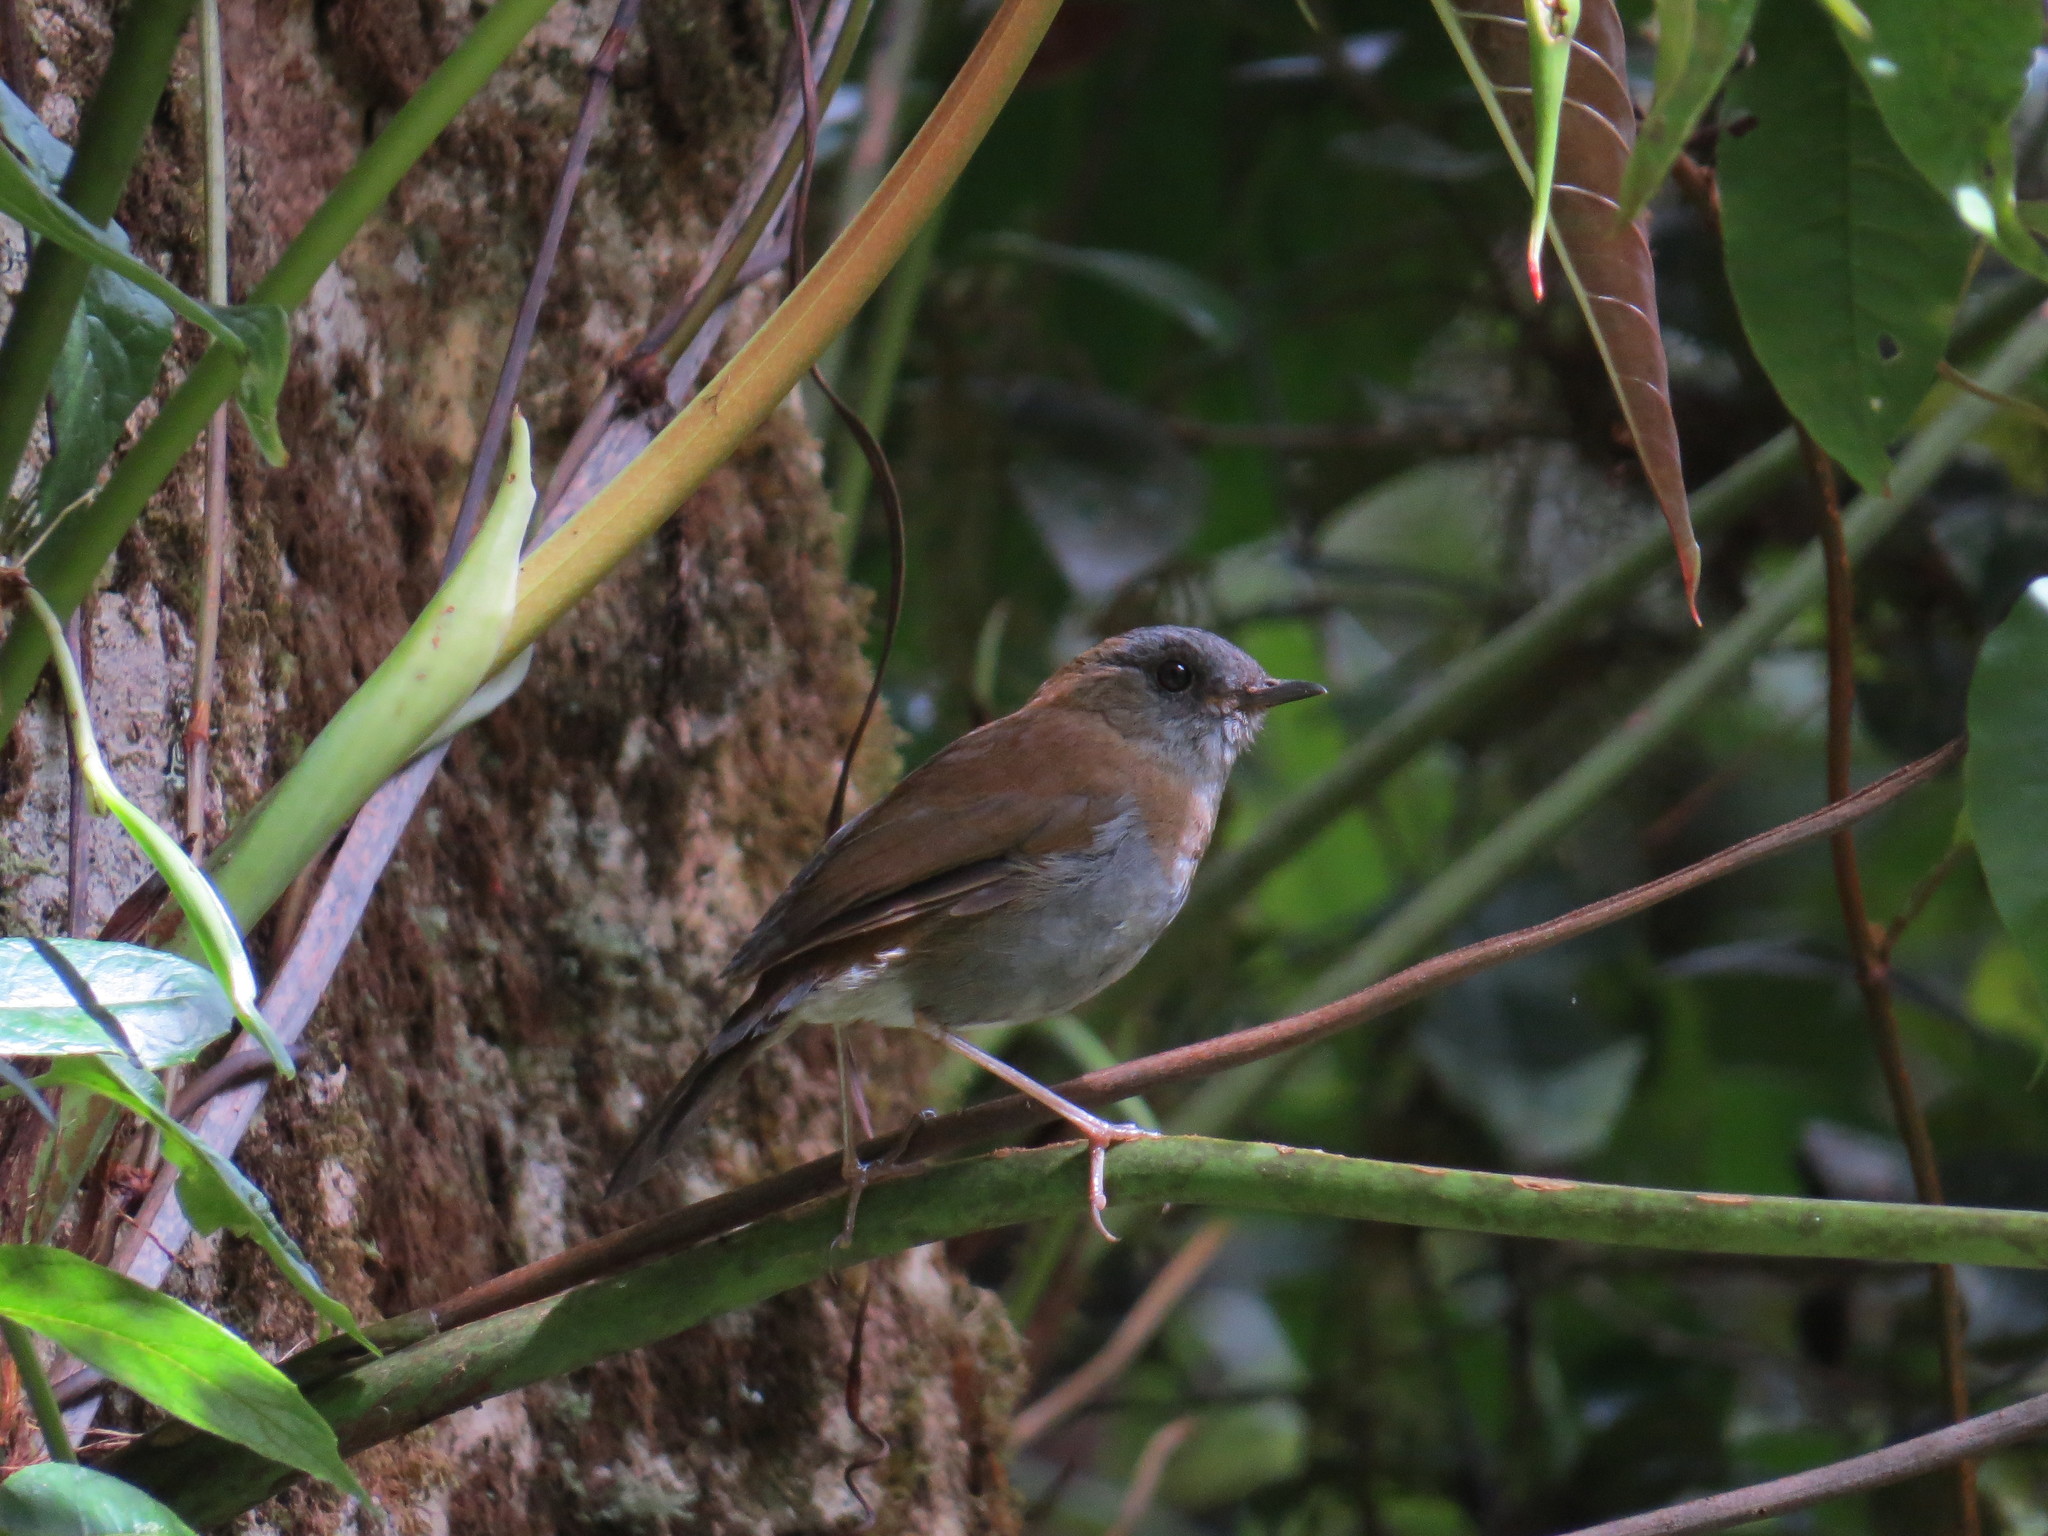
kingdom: Animalia
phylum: Chordata
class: Aves
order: Passeriformes
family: Turdidae
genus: Catharus
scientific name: Catharus gracilirostris
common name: Black-billed nightingale-thrush
